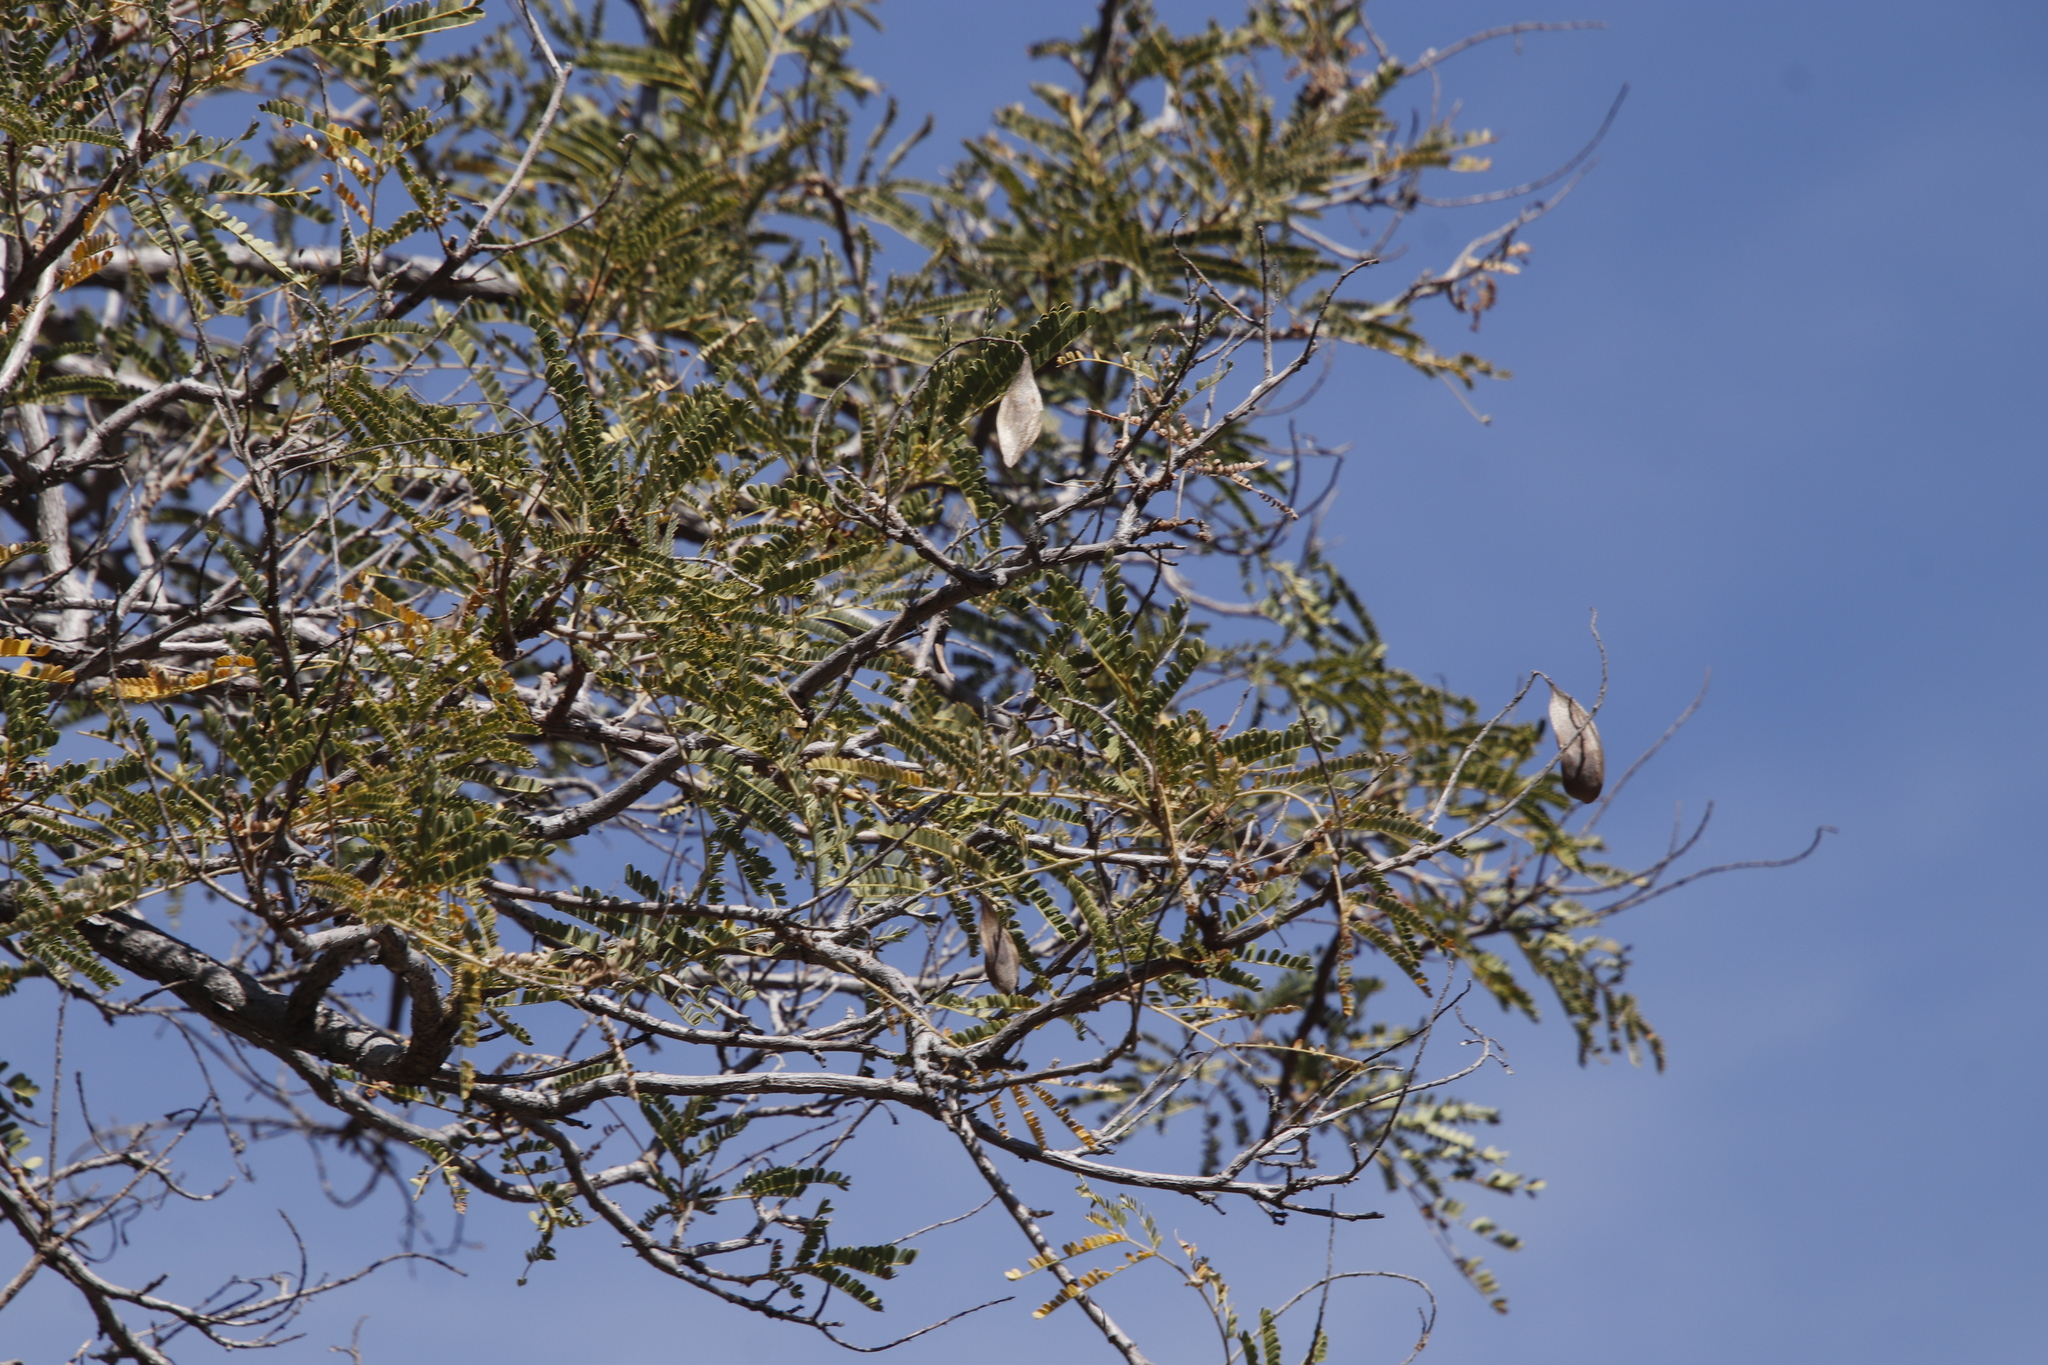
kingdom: Plantae
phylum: Tracheophyta
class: Magnoliopsida
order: Fabales
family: Fabaceae
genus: Peltophorum
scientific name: Peltophorum africanum
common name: African black wattle
